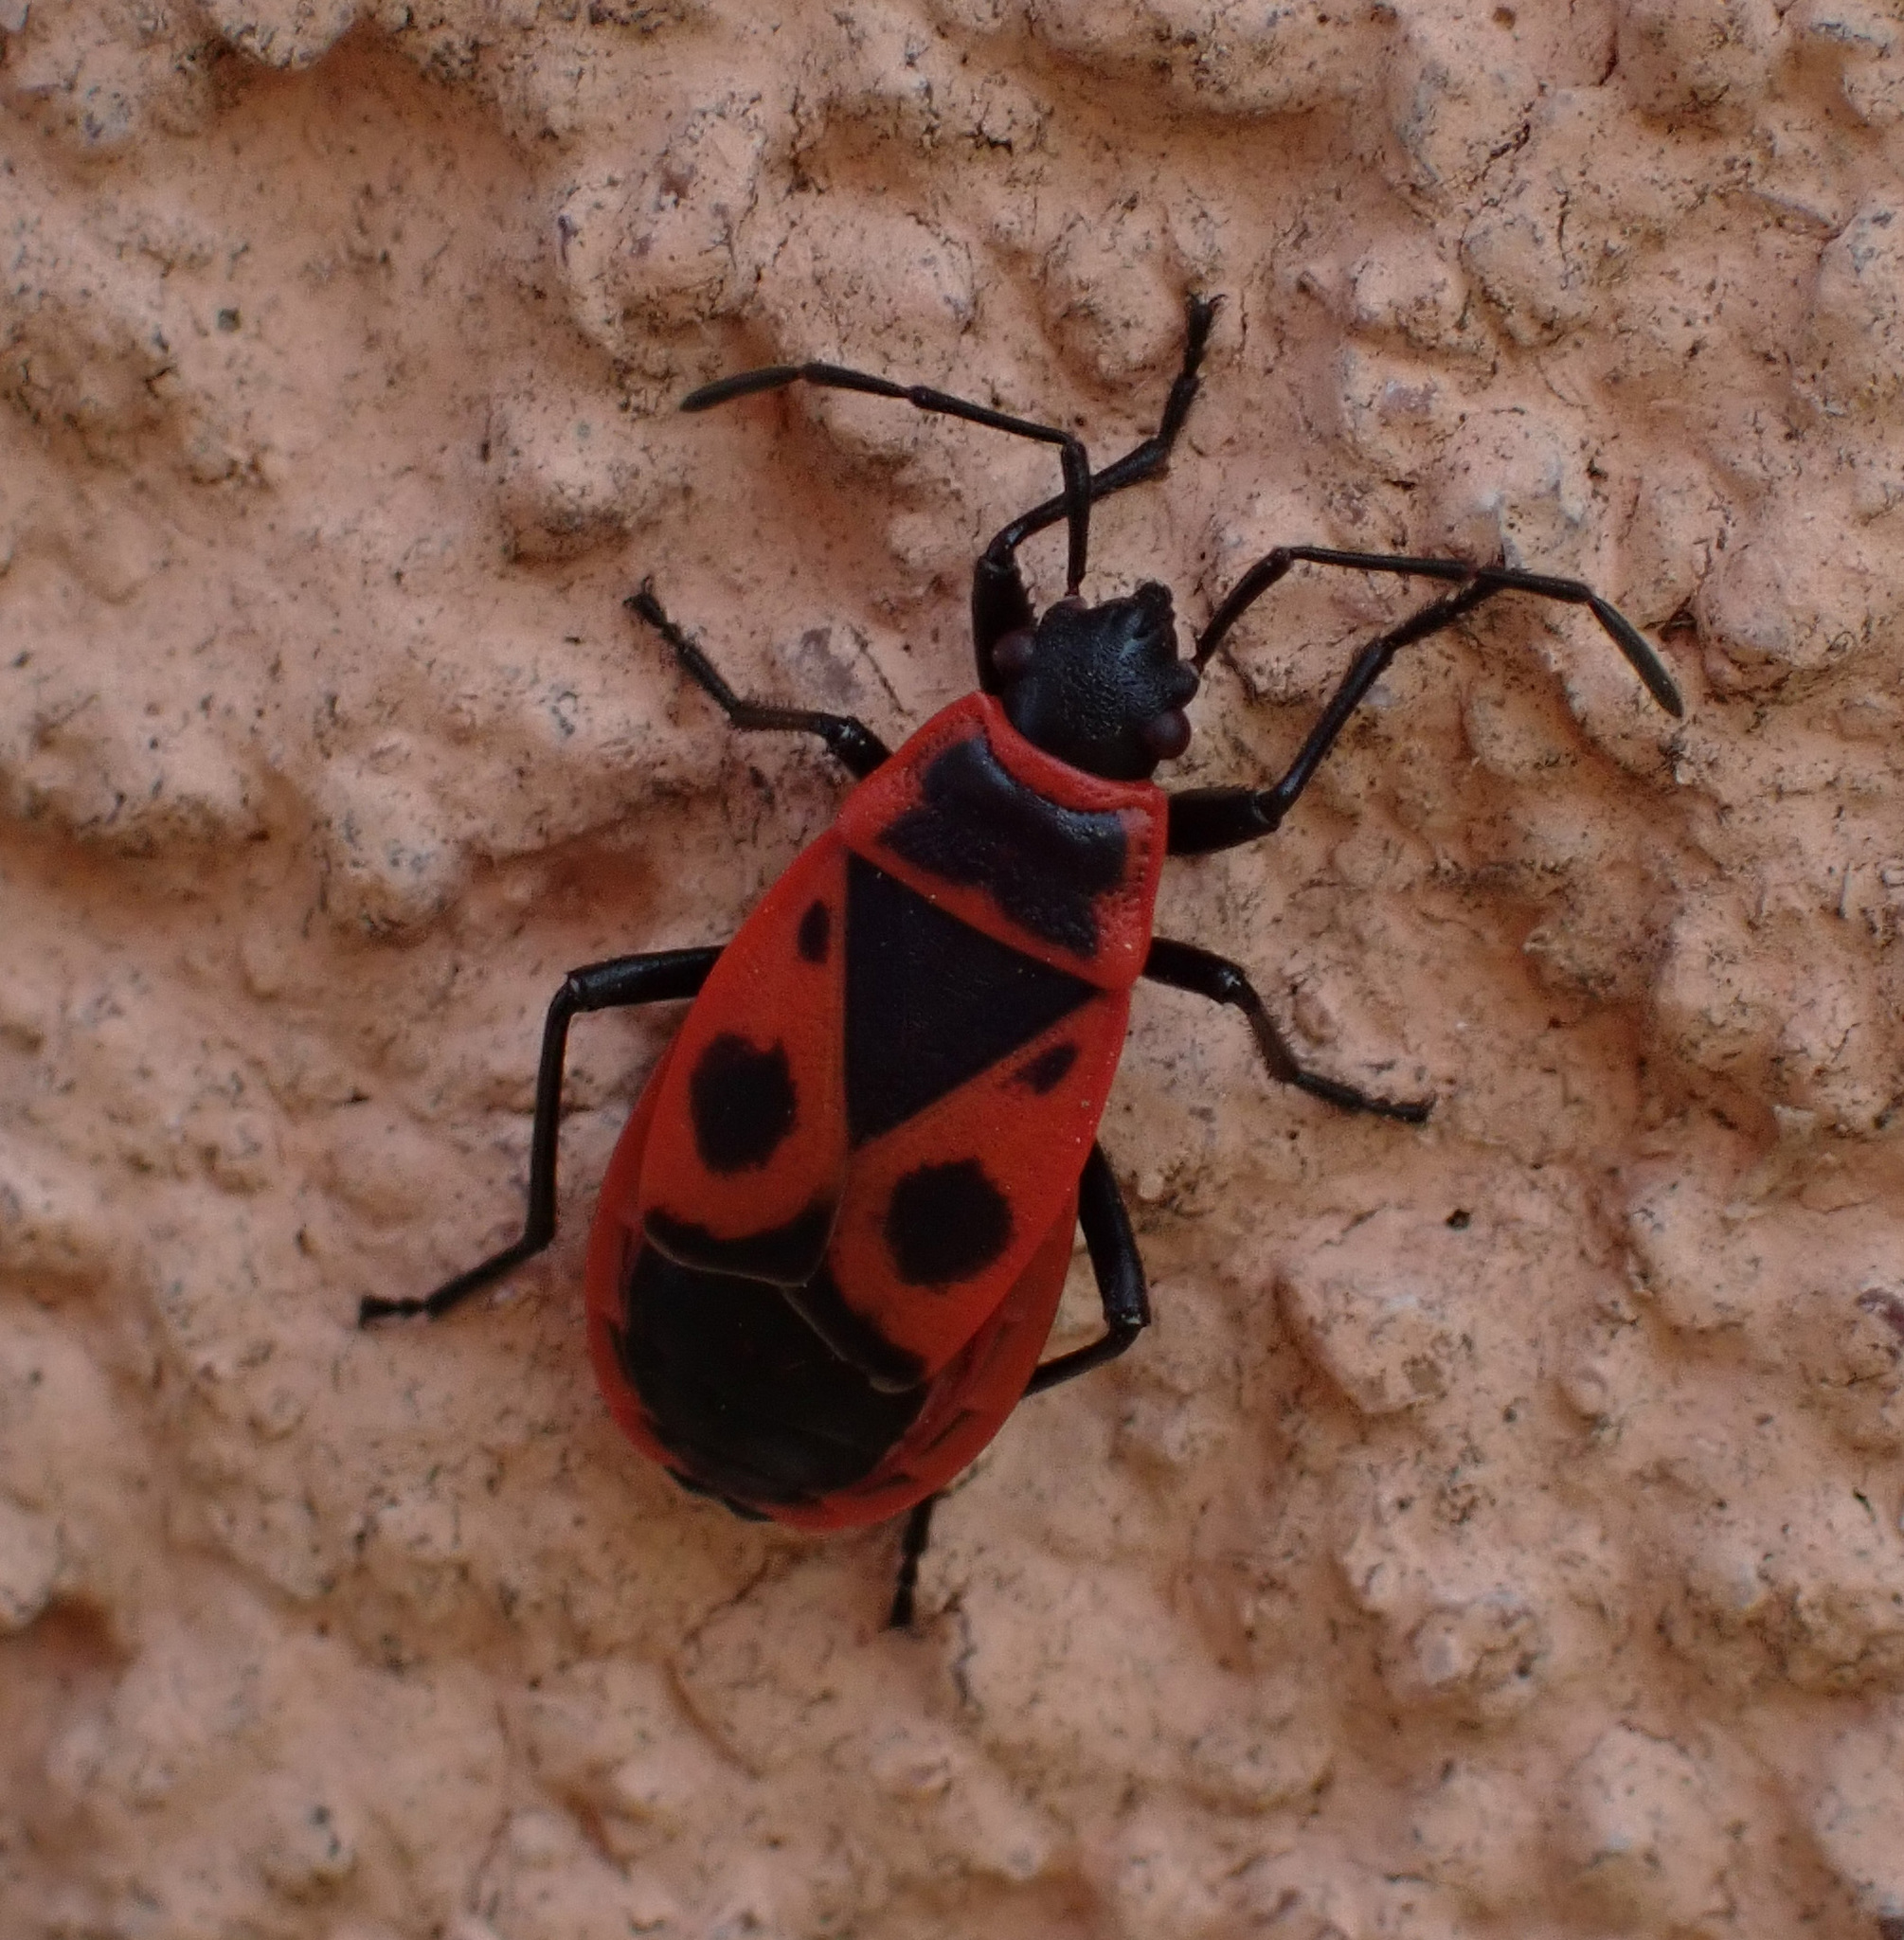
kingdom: Animalia
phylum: Arthropoda
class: Insecta
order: Hemiptera
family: Pyrrhocoridae
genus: Pyrrhocoris
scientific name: Pyrrhocoris apterus
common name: Firebug
